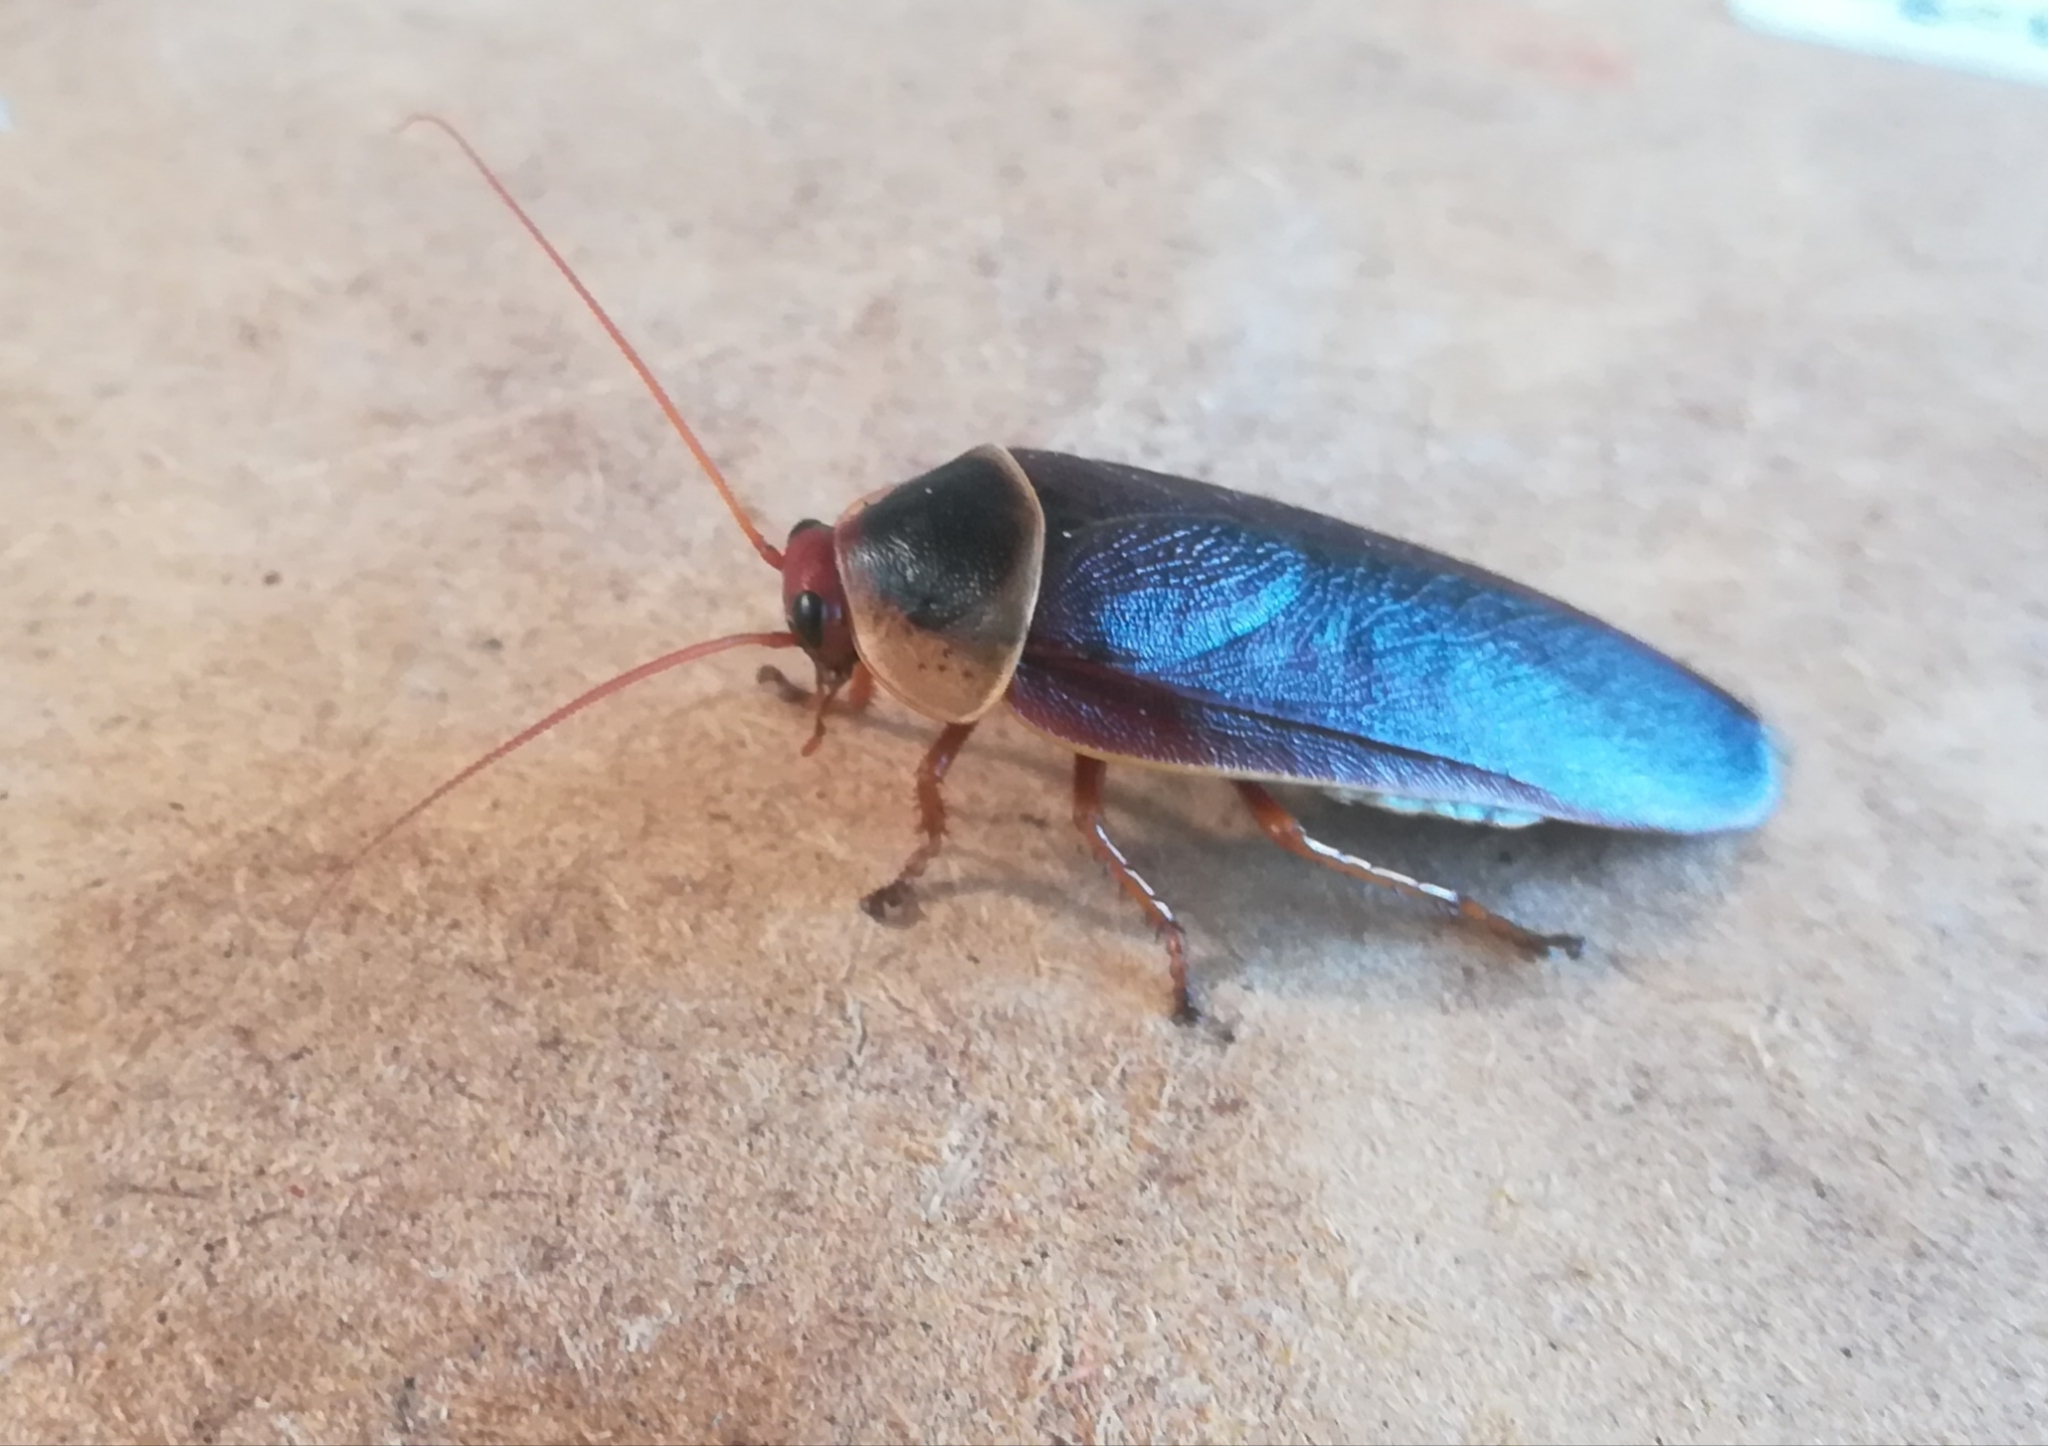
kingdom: Animalia
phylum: Arthropoda
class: Insecta
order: Blattodea
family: Blaberidae
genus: Aptera
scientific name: Aptera fusca
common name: Cape mountain cockroach
